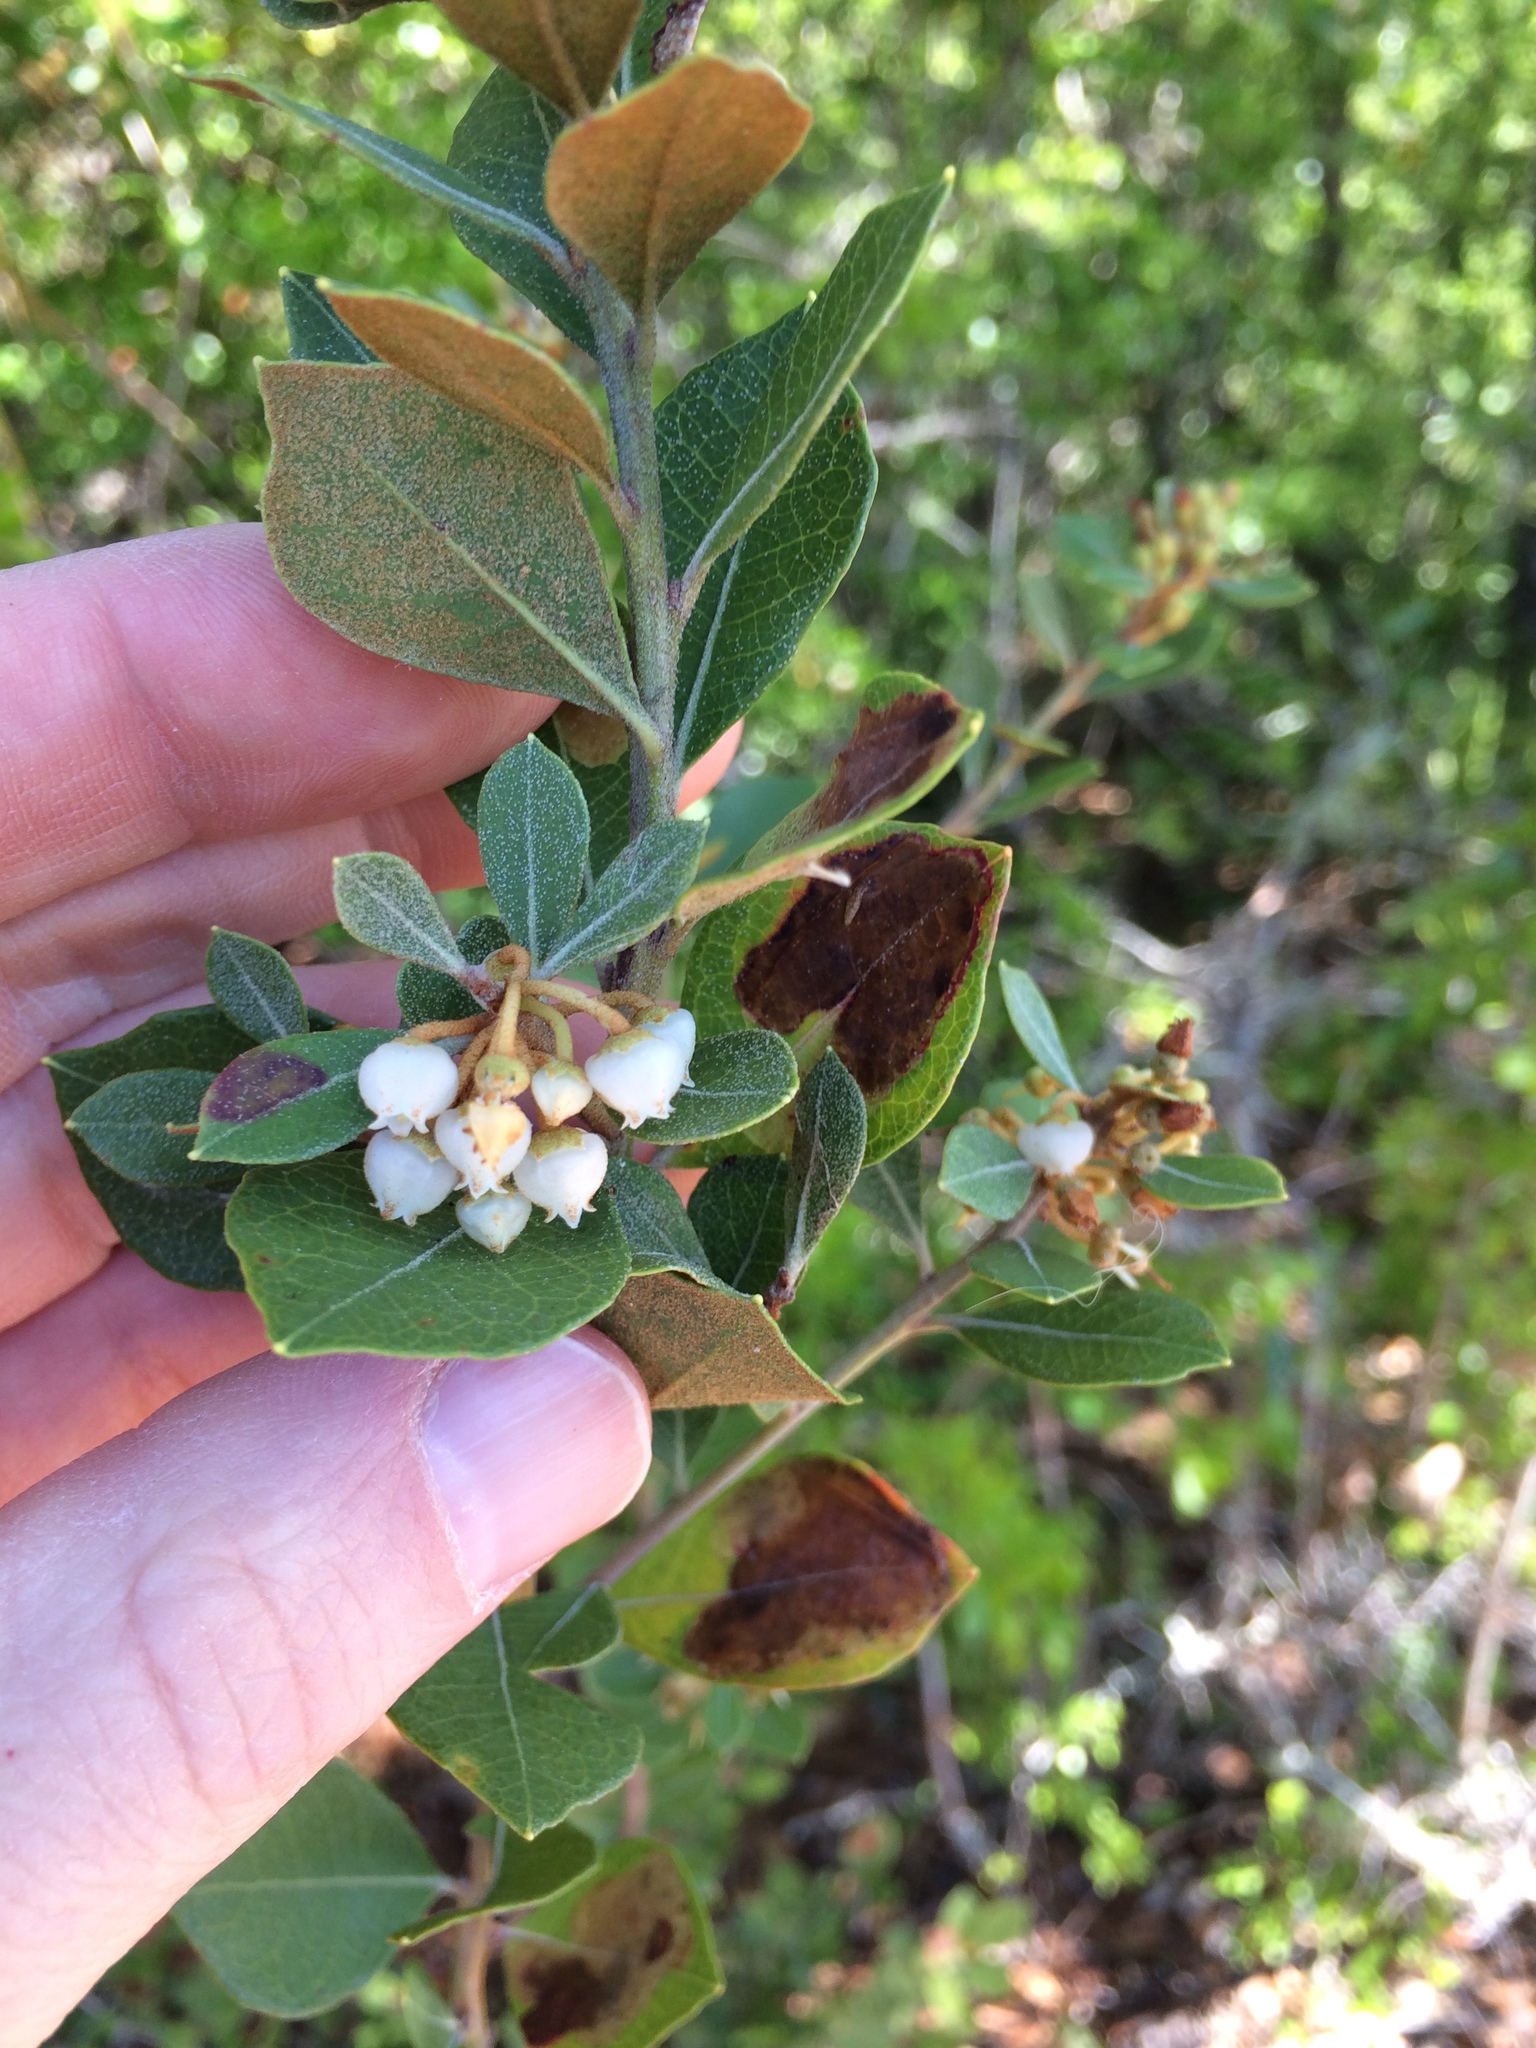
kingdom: Plantae
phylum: Tracheophyta
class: Magnoliopsida
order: Ericales
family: Ericaceae
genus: Lyonia
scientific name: Lyonia fruticosa
